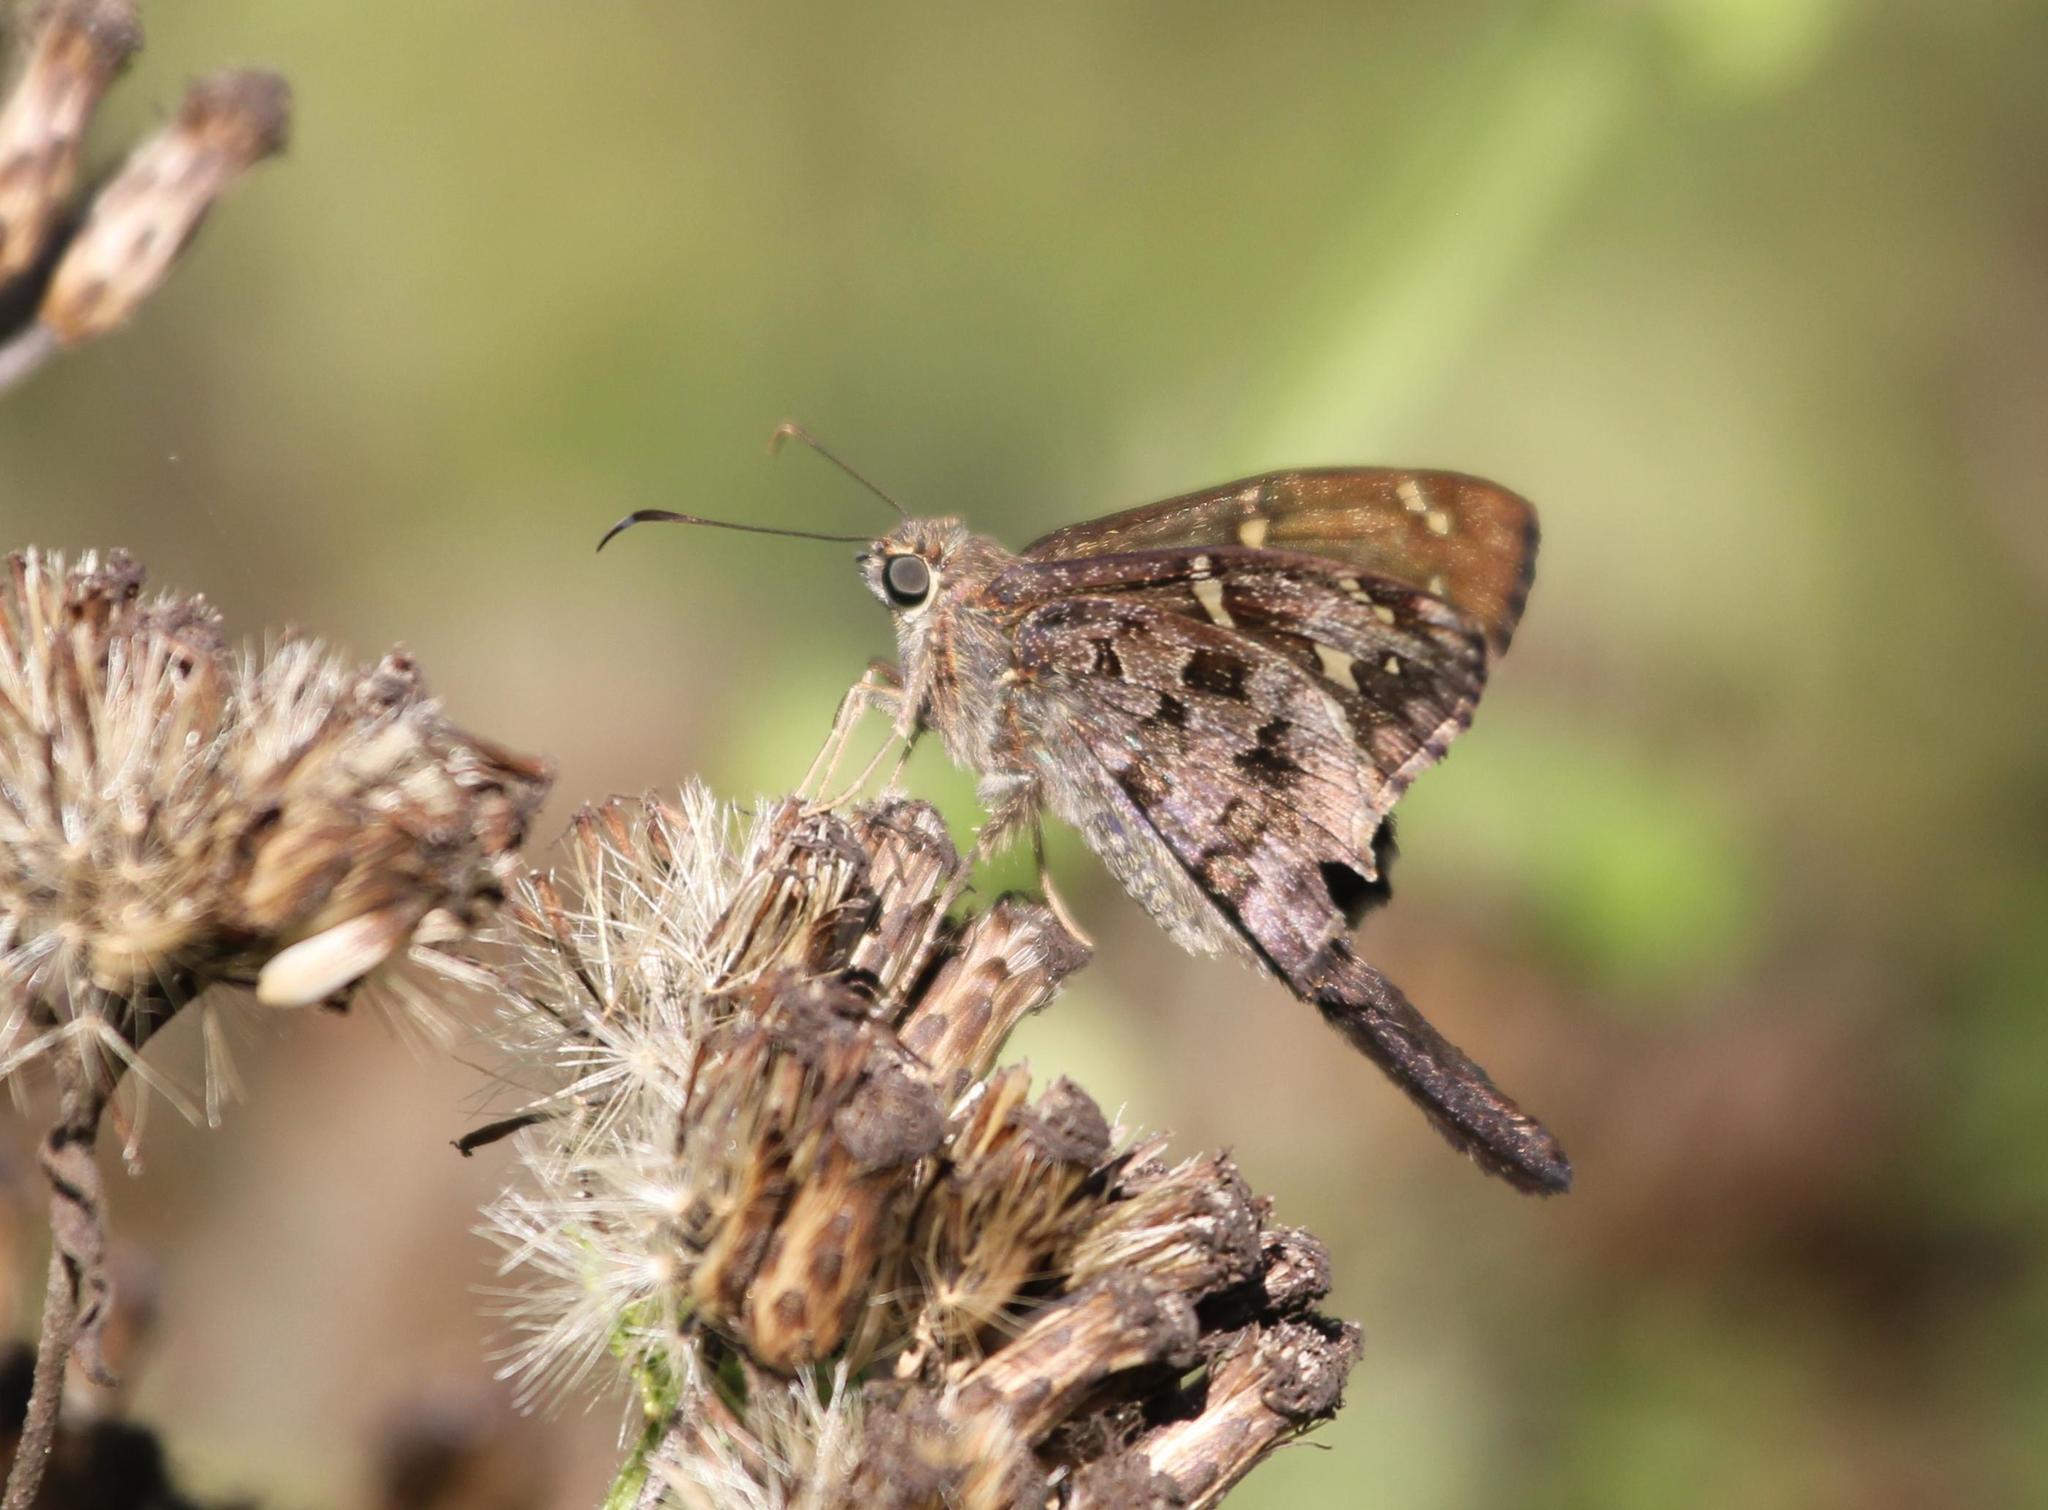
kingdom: Animalia
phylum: Arthropoda
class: Insecta
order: Lepidoptera
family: Hesperiidae
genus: Thorybes
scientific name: Thorybes
